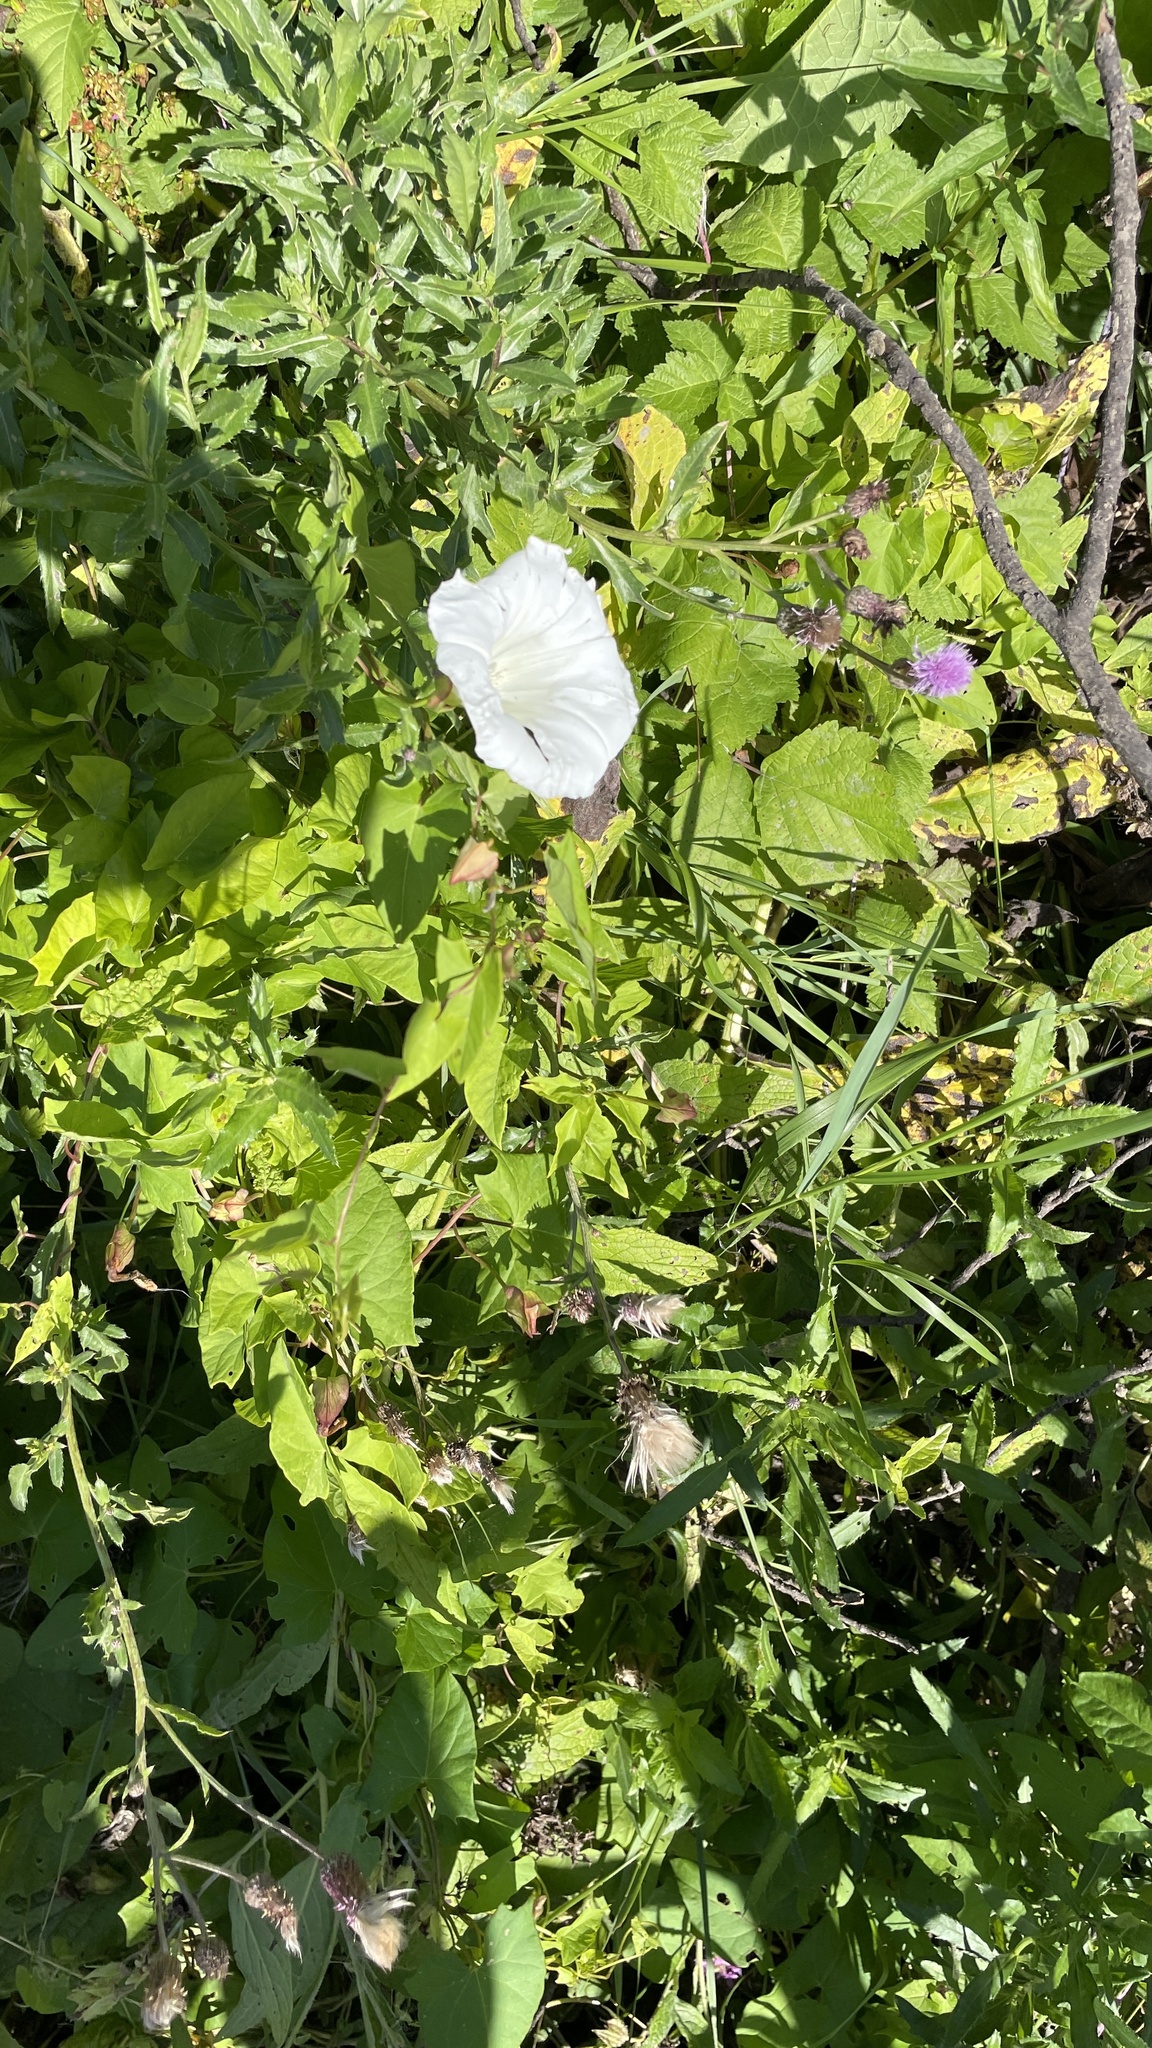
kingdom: Plantae
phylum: Tracheophyta
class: Magnoliopsida
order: Solanales
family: Convolvulaceae
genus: Calystegia
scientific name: Calystegia sepium
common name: Hedge bindweed
